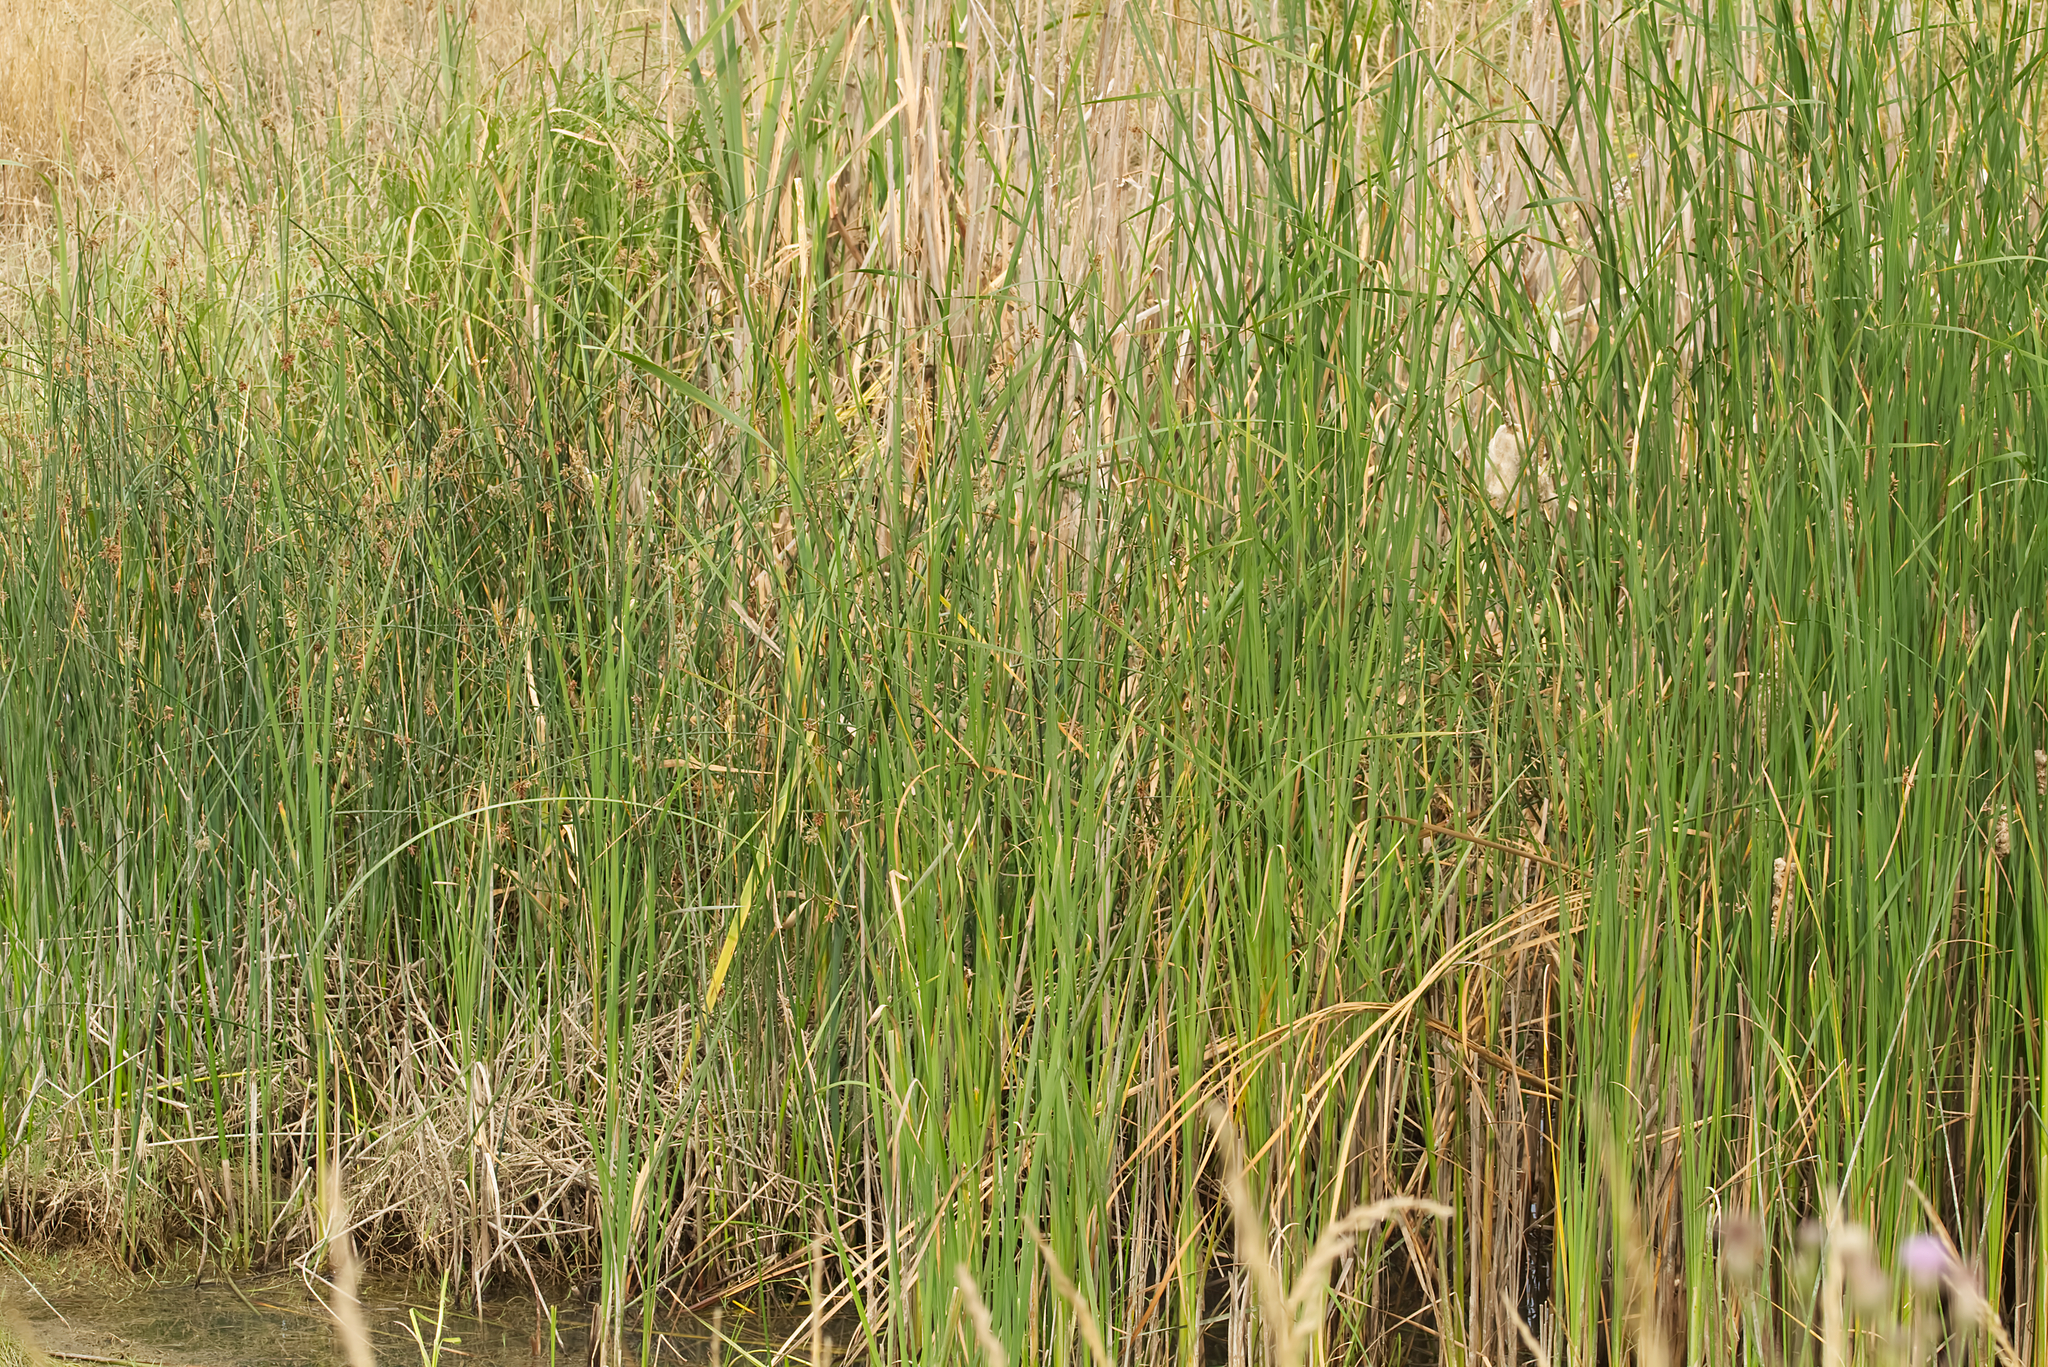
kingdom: Plantae
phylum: Tracheophyta
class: Liliopsida
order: Poales
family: Typhaceae
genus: Typha
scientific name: Typha angustifolia
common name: Lesser bulrush
